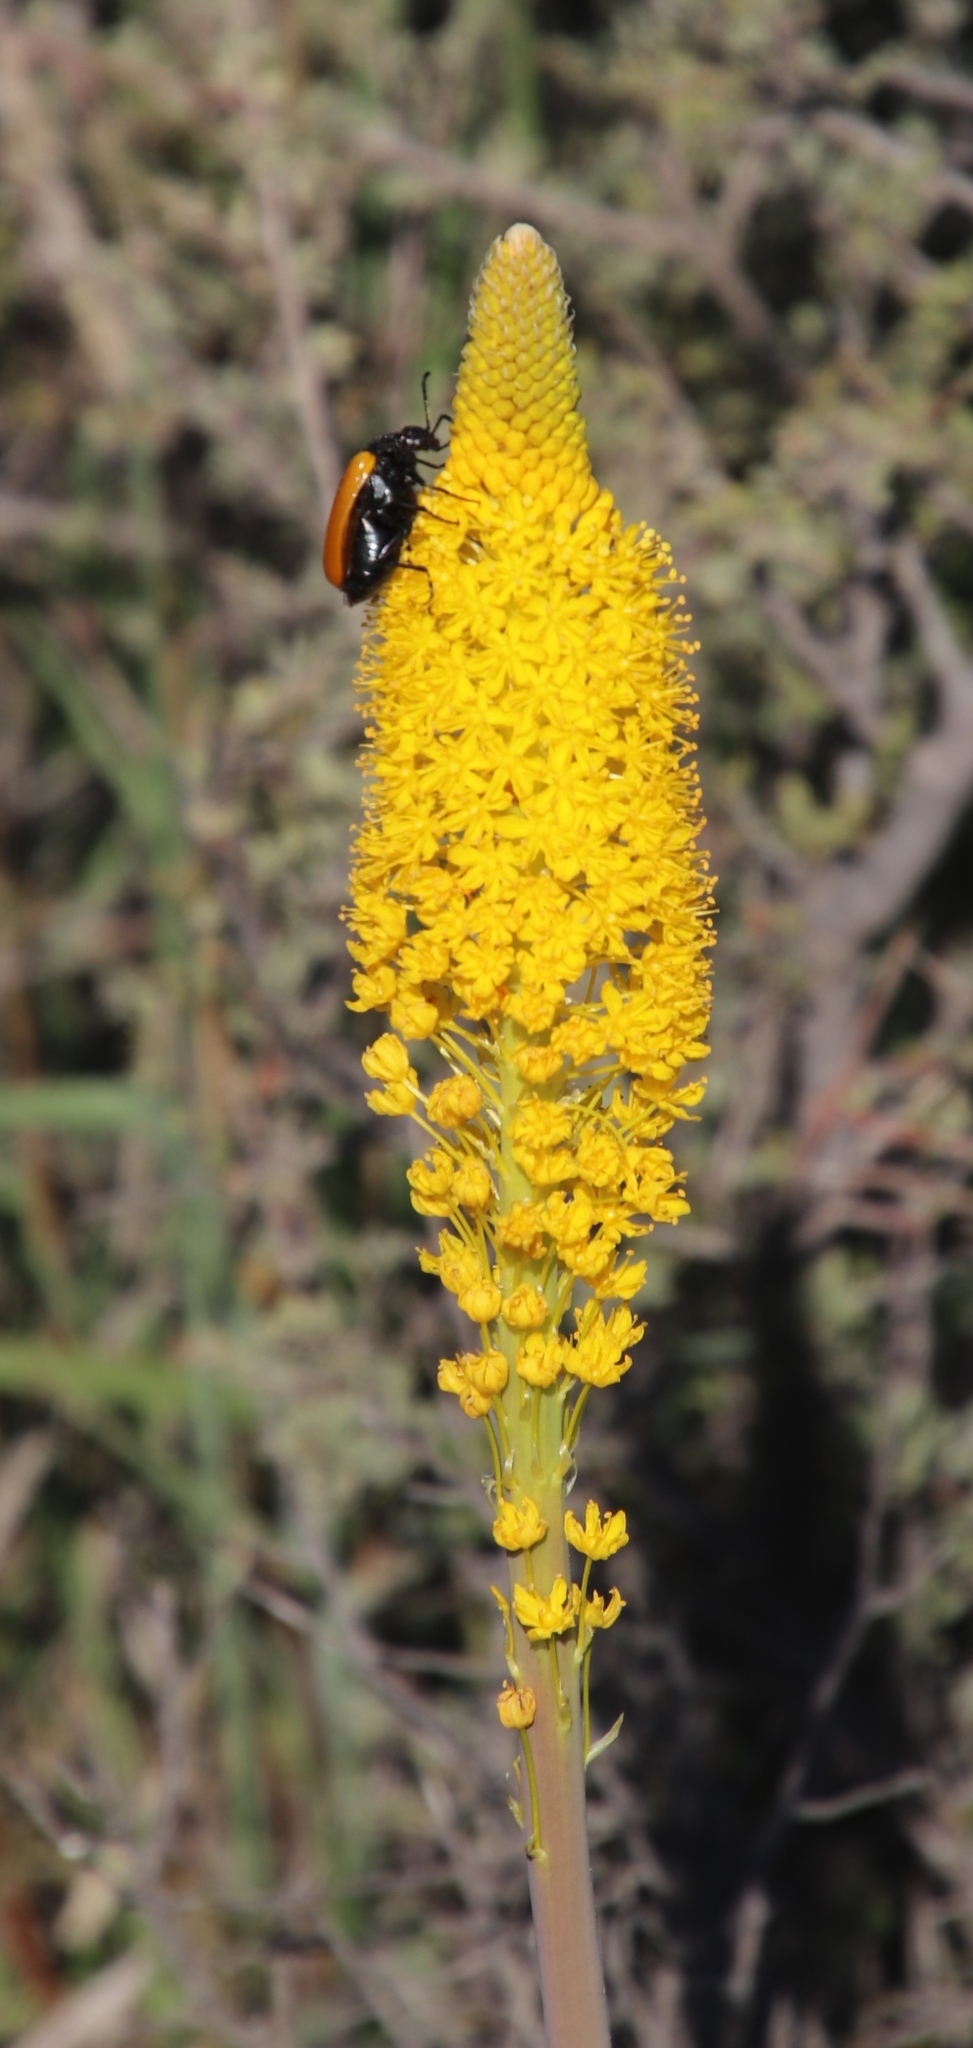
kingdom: Plantae
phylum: Tracheophyta
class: Liliopsida
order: Asparagales
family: Asphodelaceae
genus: Bulbinella
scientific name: Bulbinella latifolia
